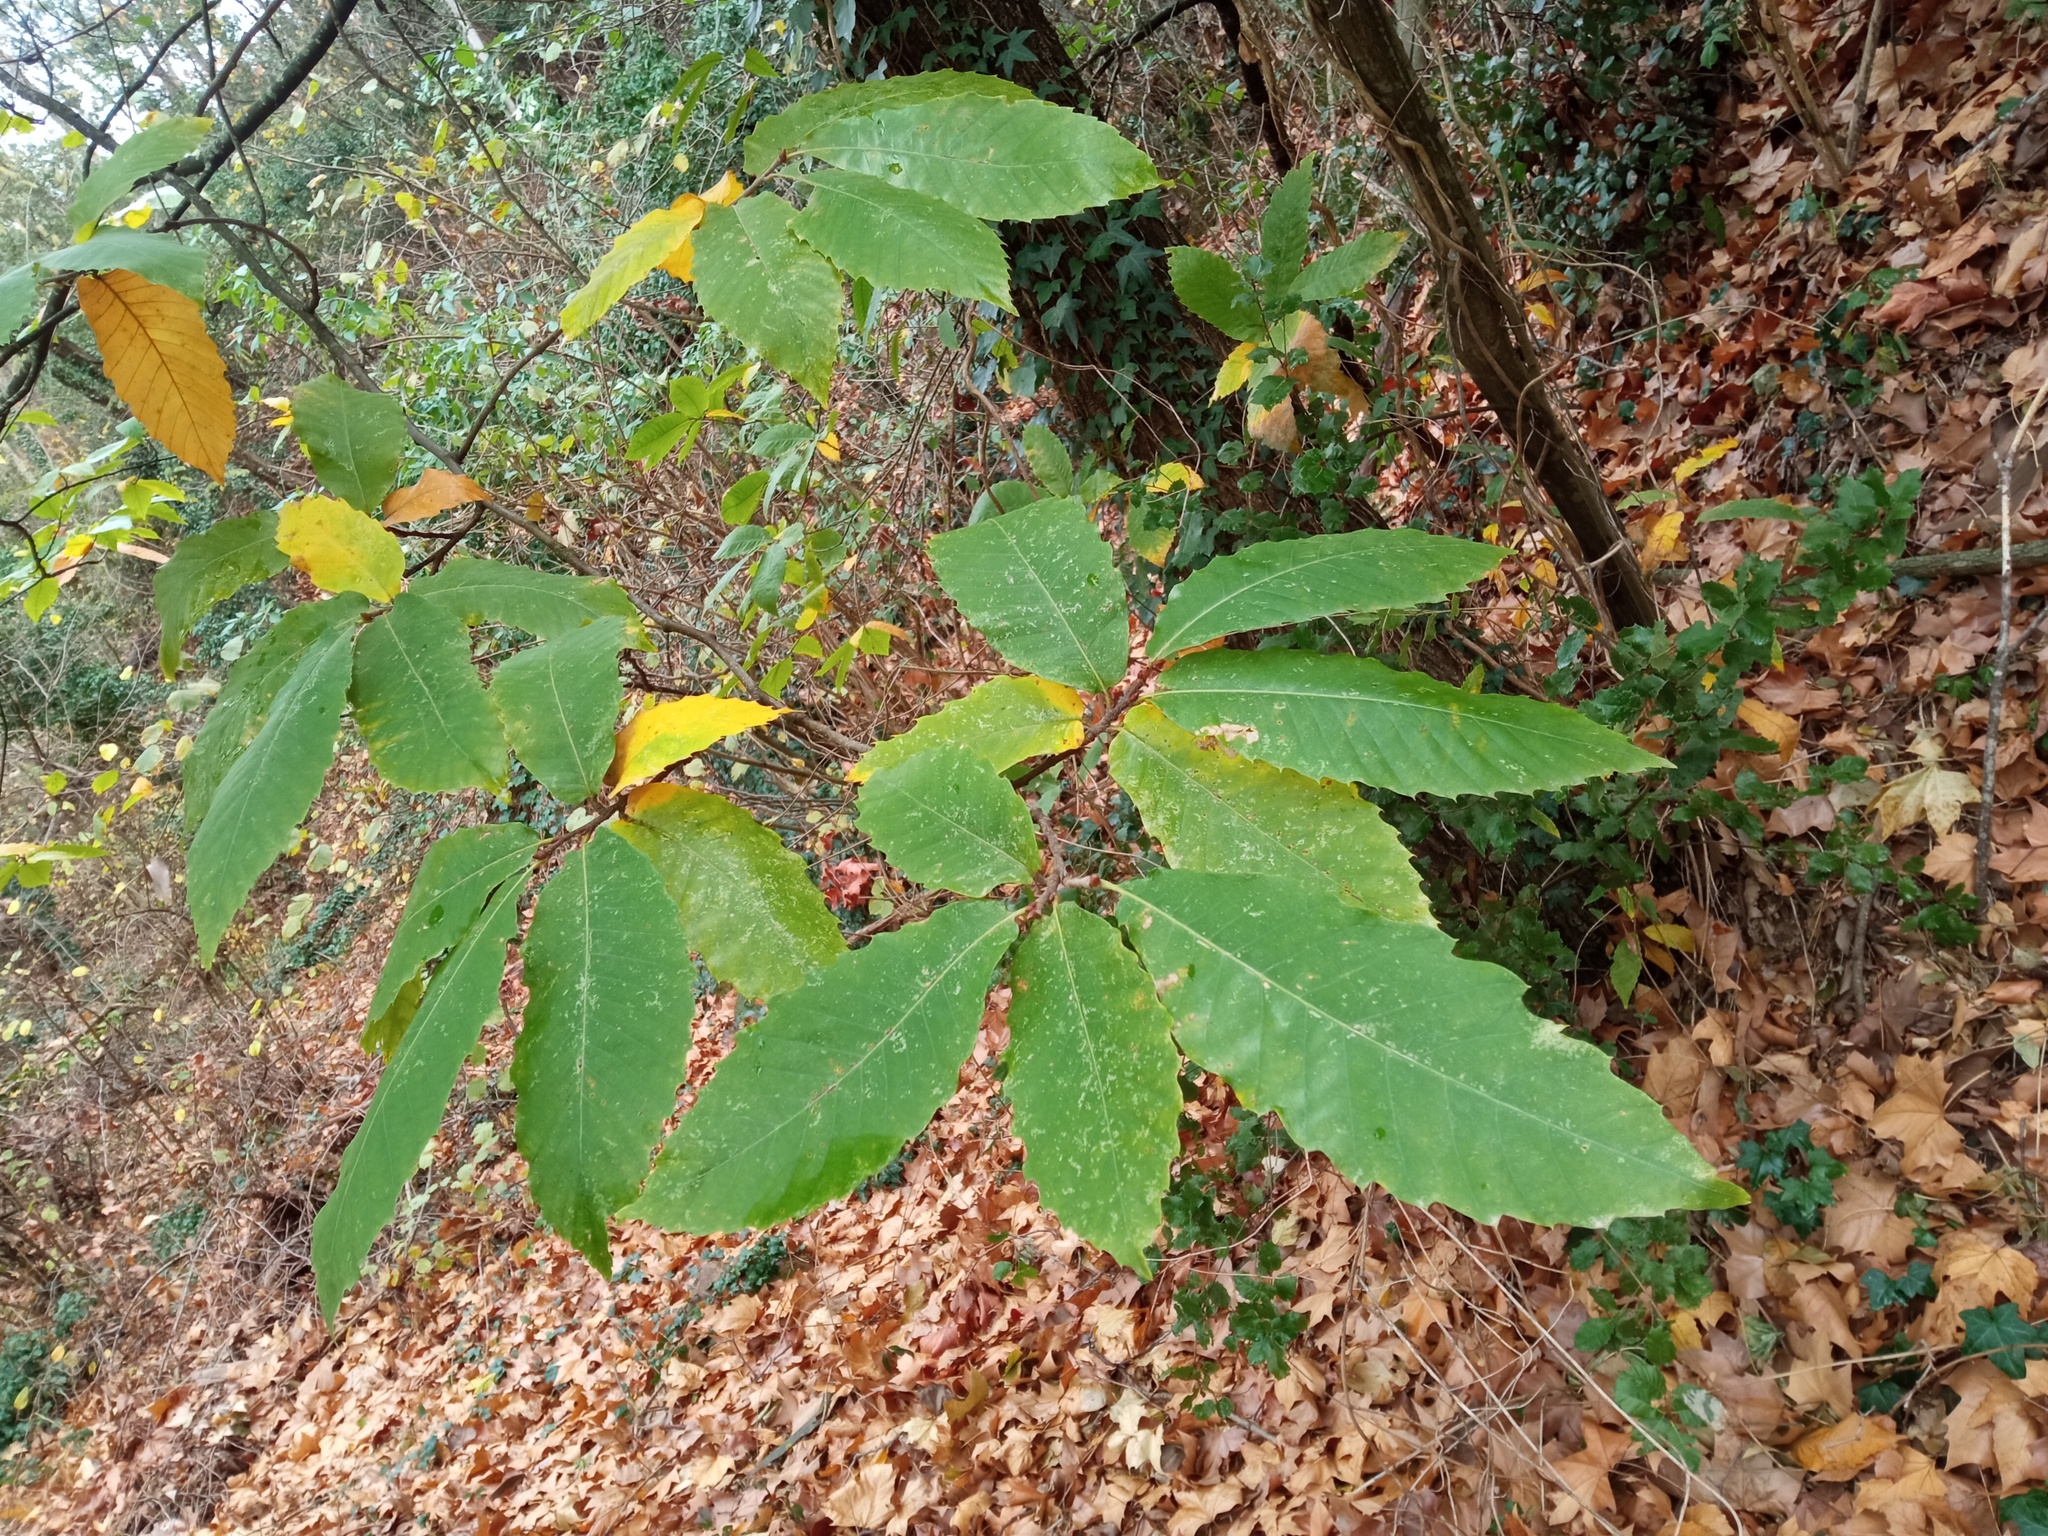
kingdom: Plantae
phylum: Tracheophyta
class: Magnoliopsida
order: Fagales
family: Fagaceae
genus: Castanea
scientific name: Castanea sativa
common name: Sweet chestnut
